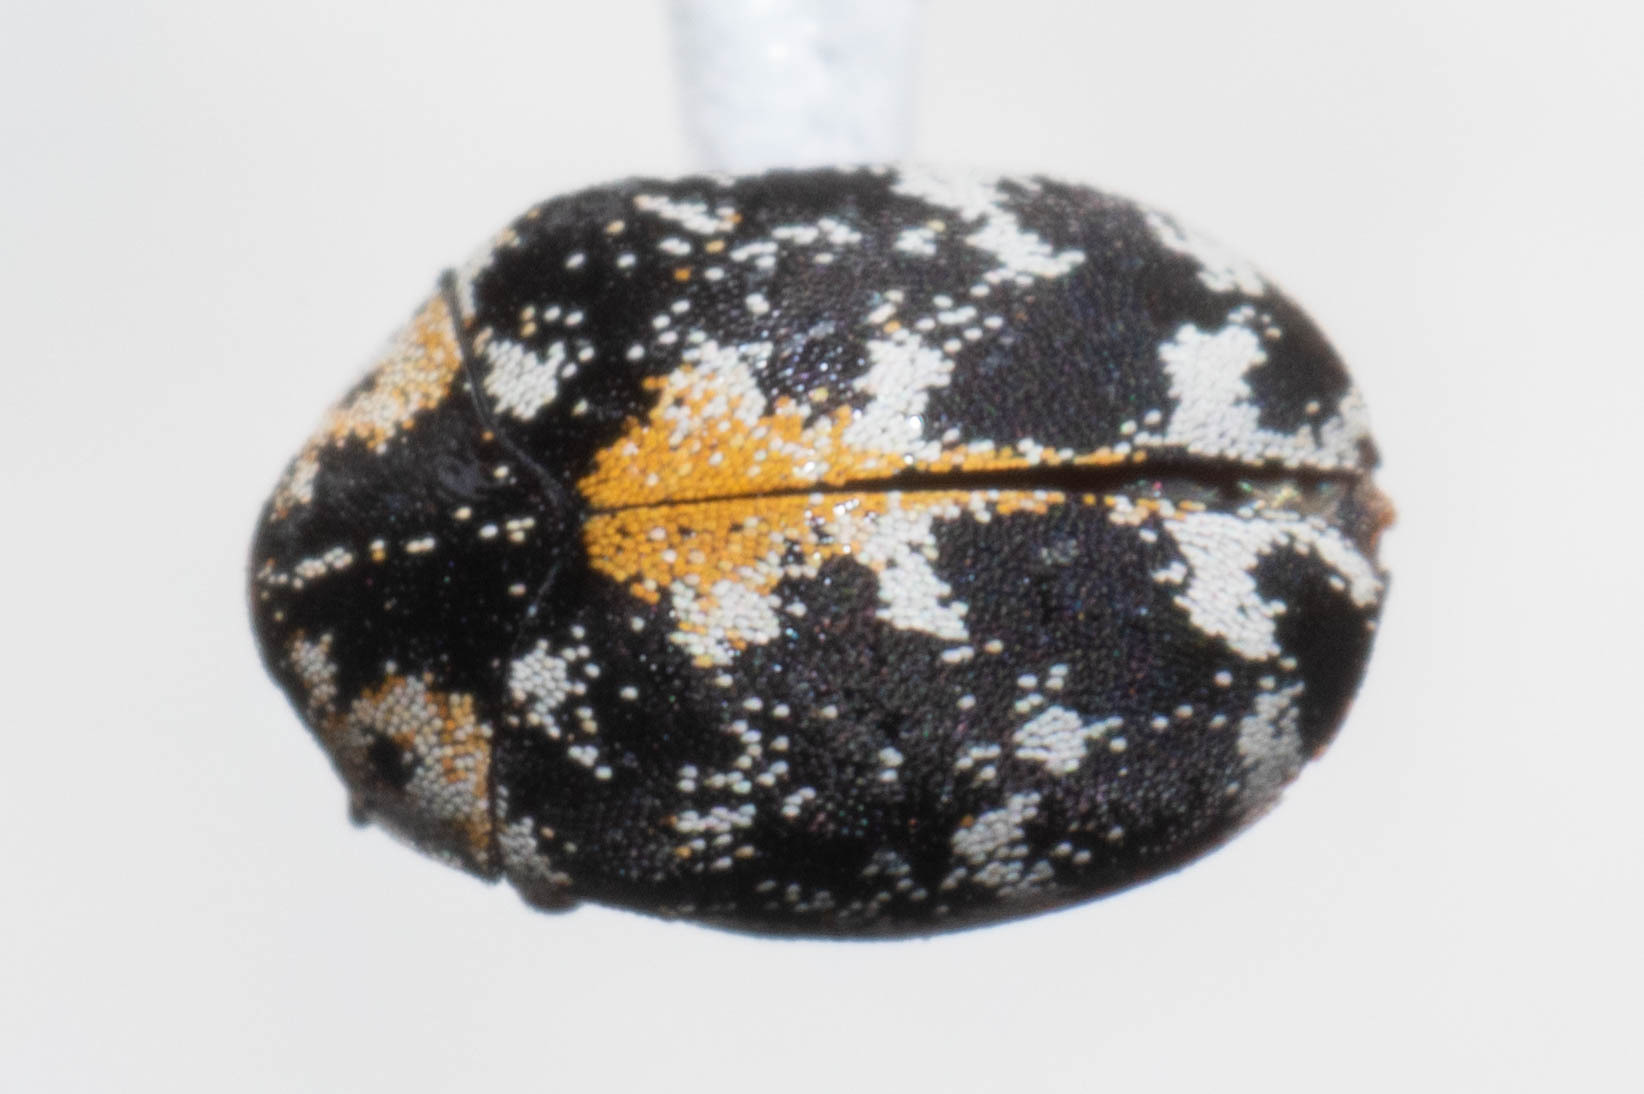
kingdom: Animalia
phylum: Arthropoda
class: Insecta
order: Coleoptera
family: Dermestidae
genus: Anthrenus
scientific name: Anthrenus lepidus
